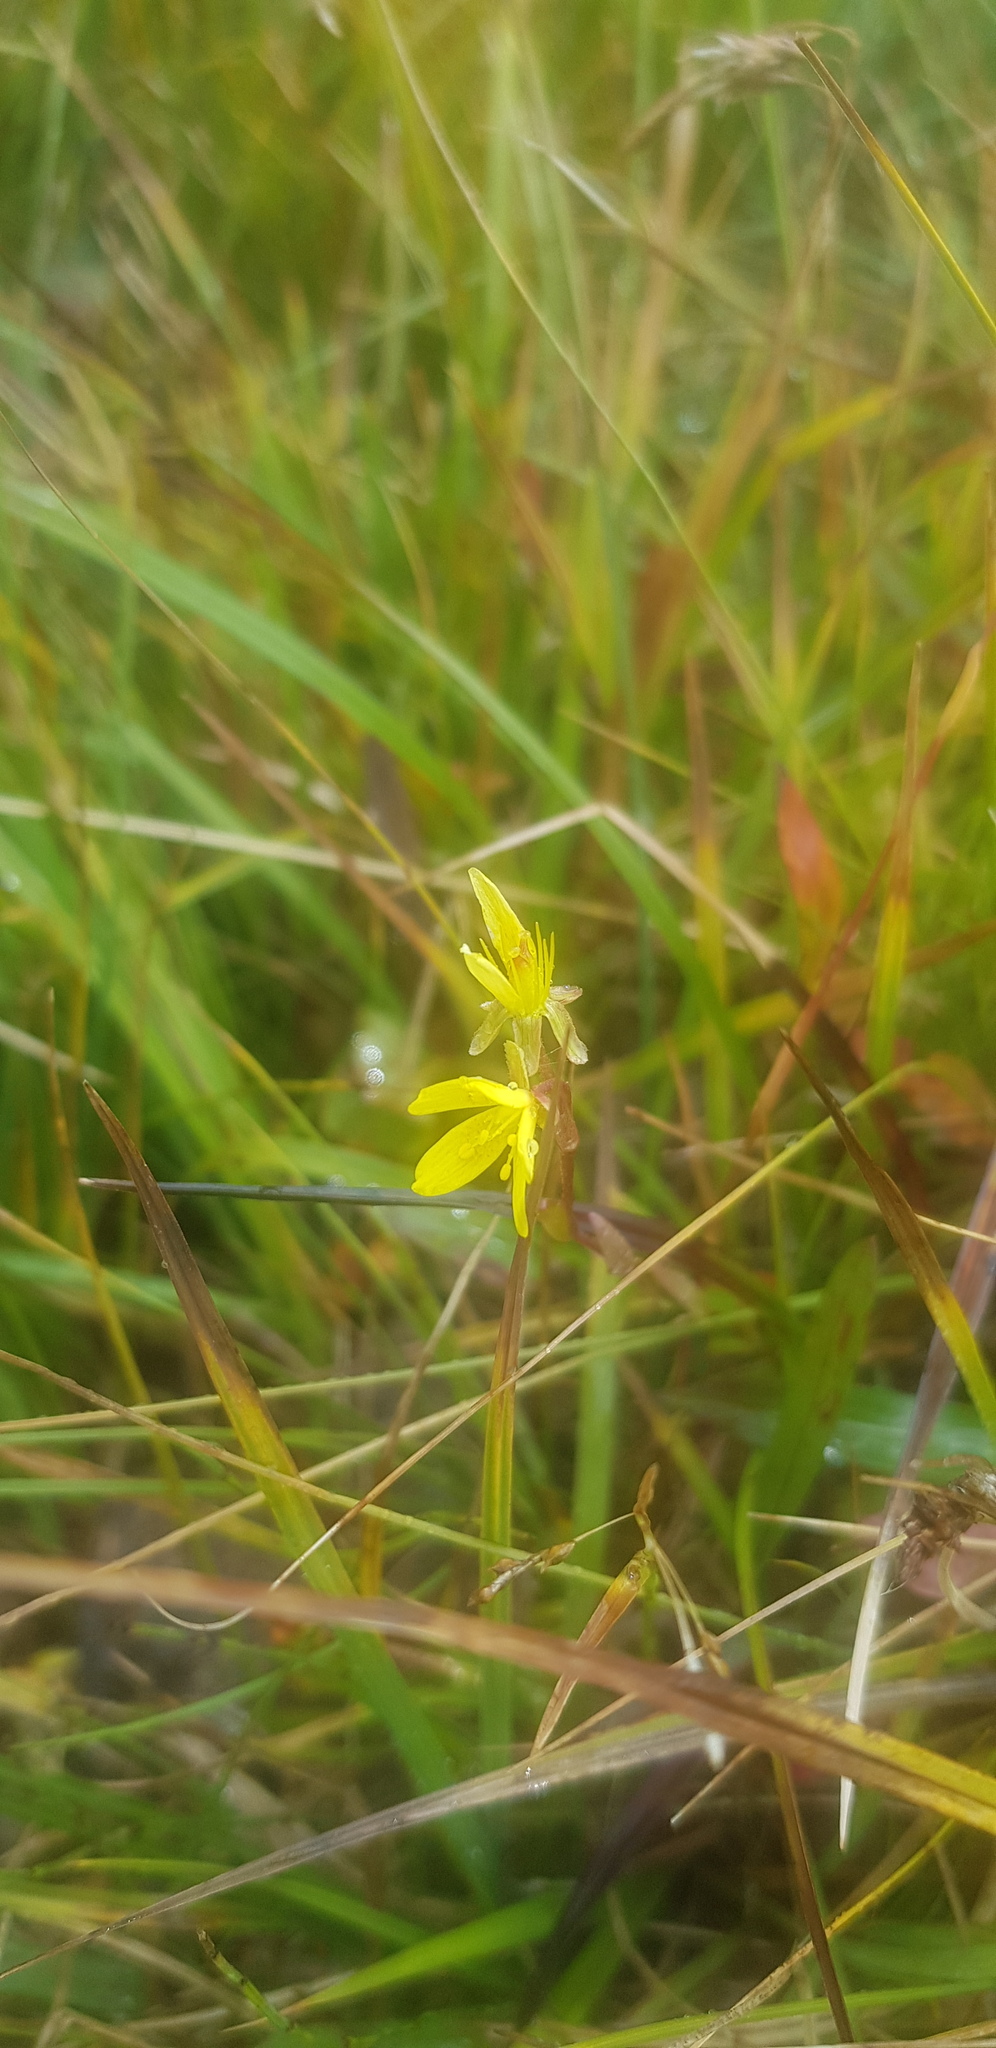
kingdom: Plantae
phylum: Tracheophyta
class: Magnoliopsida
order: Saxifragales
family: Saxifragaceae
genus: Saxifraga
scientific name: Saxifraga hirculus
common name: Yellow marsh saxifrage
